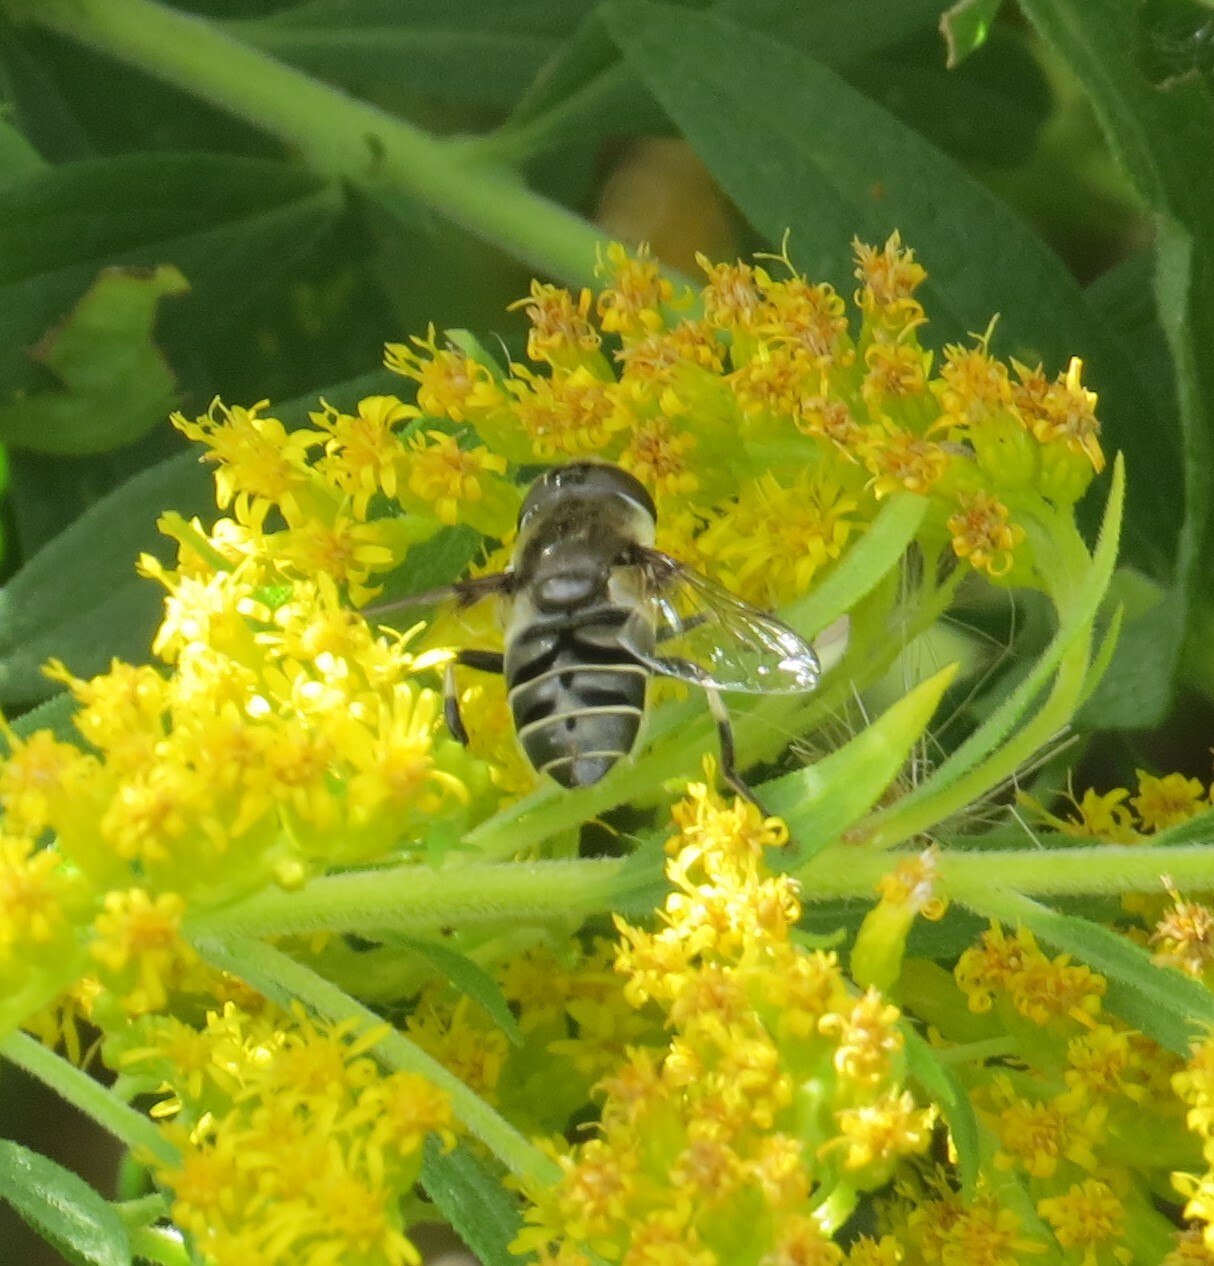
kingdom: Animalia
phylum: Arthropoda
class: Insecta
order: Diptera
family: Syrphidae
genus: Eristalis
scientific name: Eristalis dimidiata
